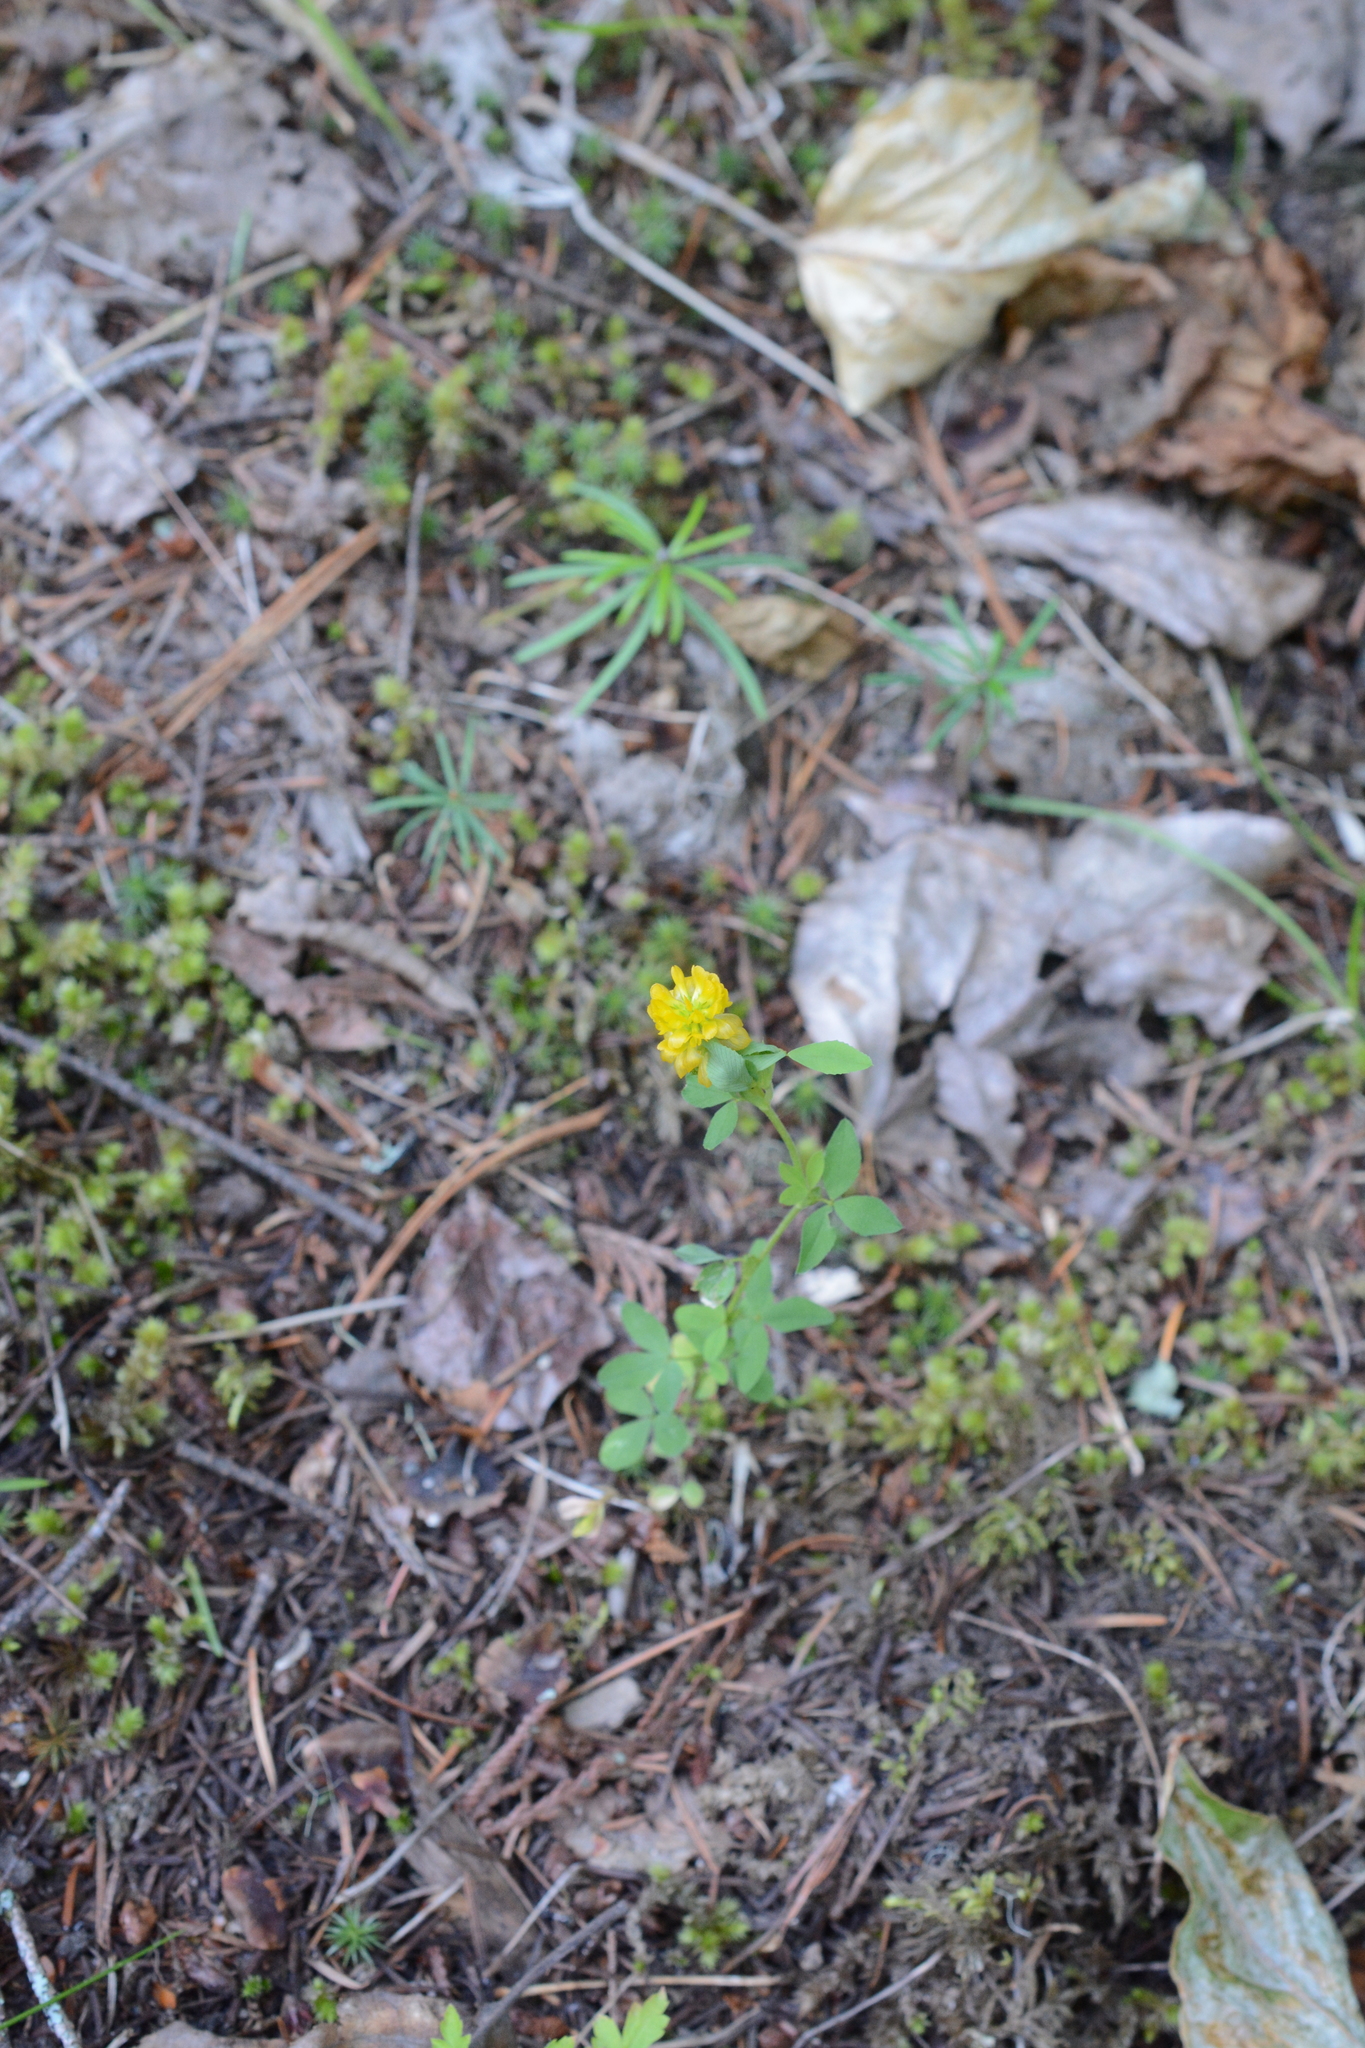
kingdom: Plantae
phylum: Tracheophyta
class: Magnoliopsida
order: Fabales
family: Fabaceae
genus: Trifolium
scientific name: Trifolium aureum
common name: Golden clover
